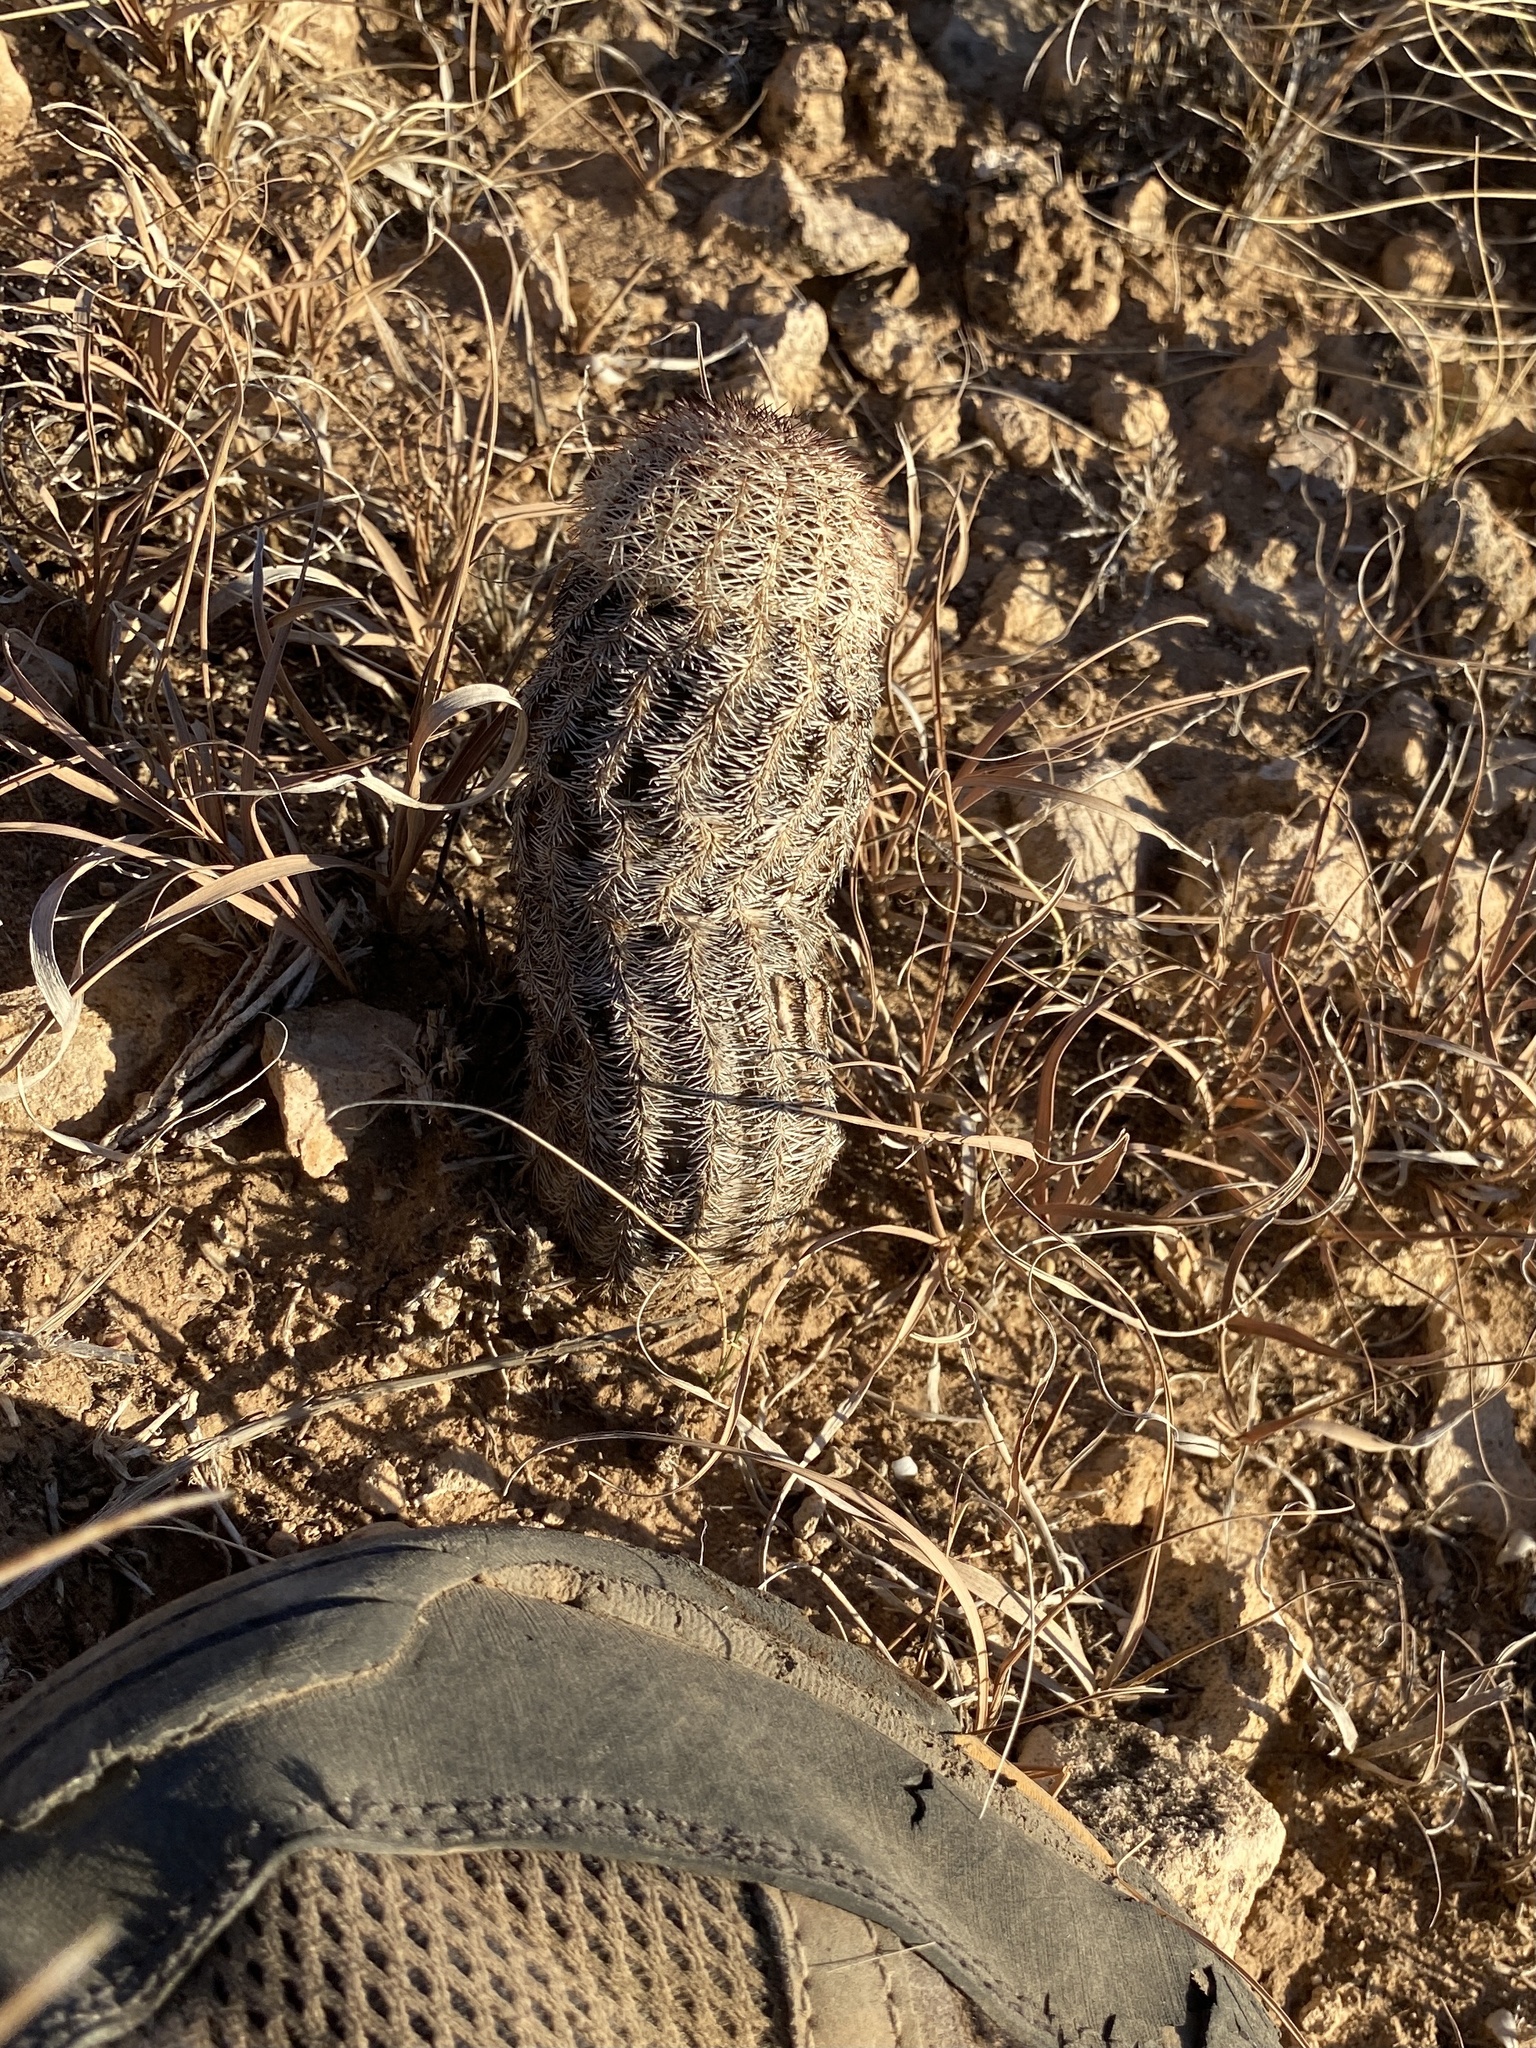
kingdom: Plantae
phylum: Tracheophyta
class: Magnoliopsida
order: Caryophyllales
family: Cactaceae
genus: Echinocereus
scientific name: Echinocereus reichenbachii
